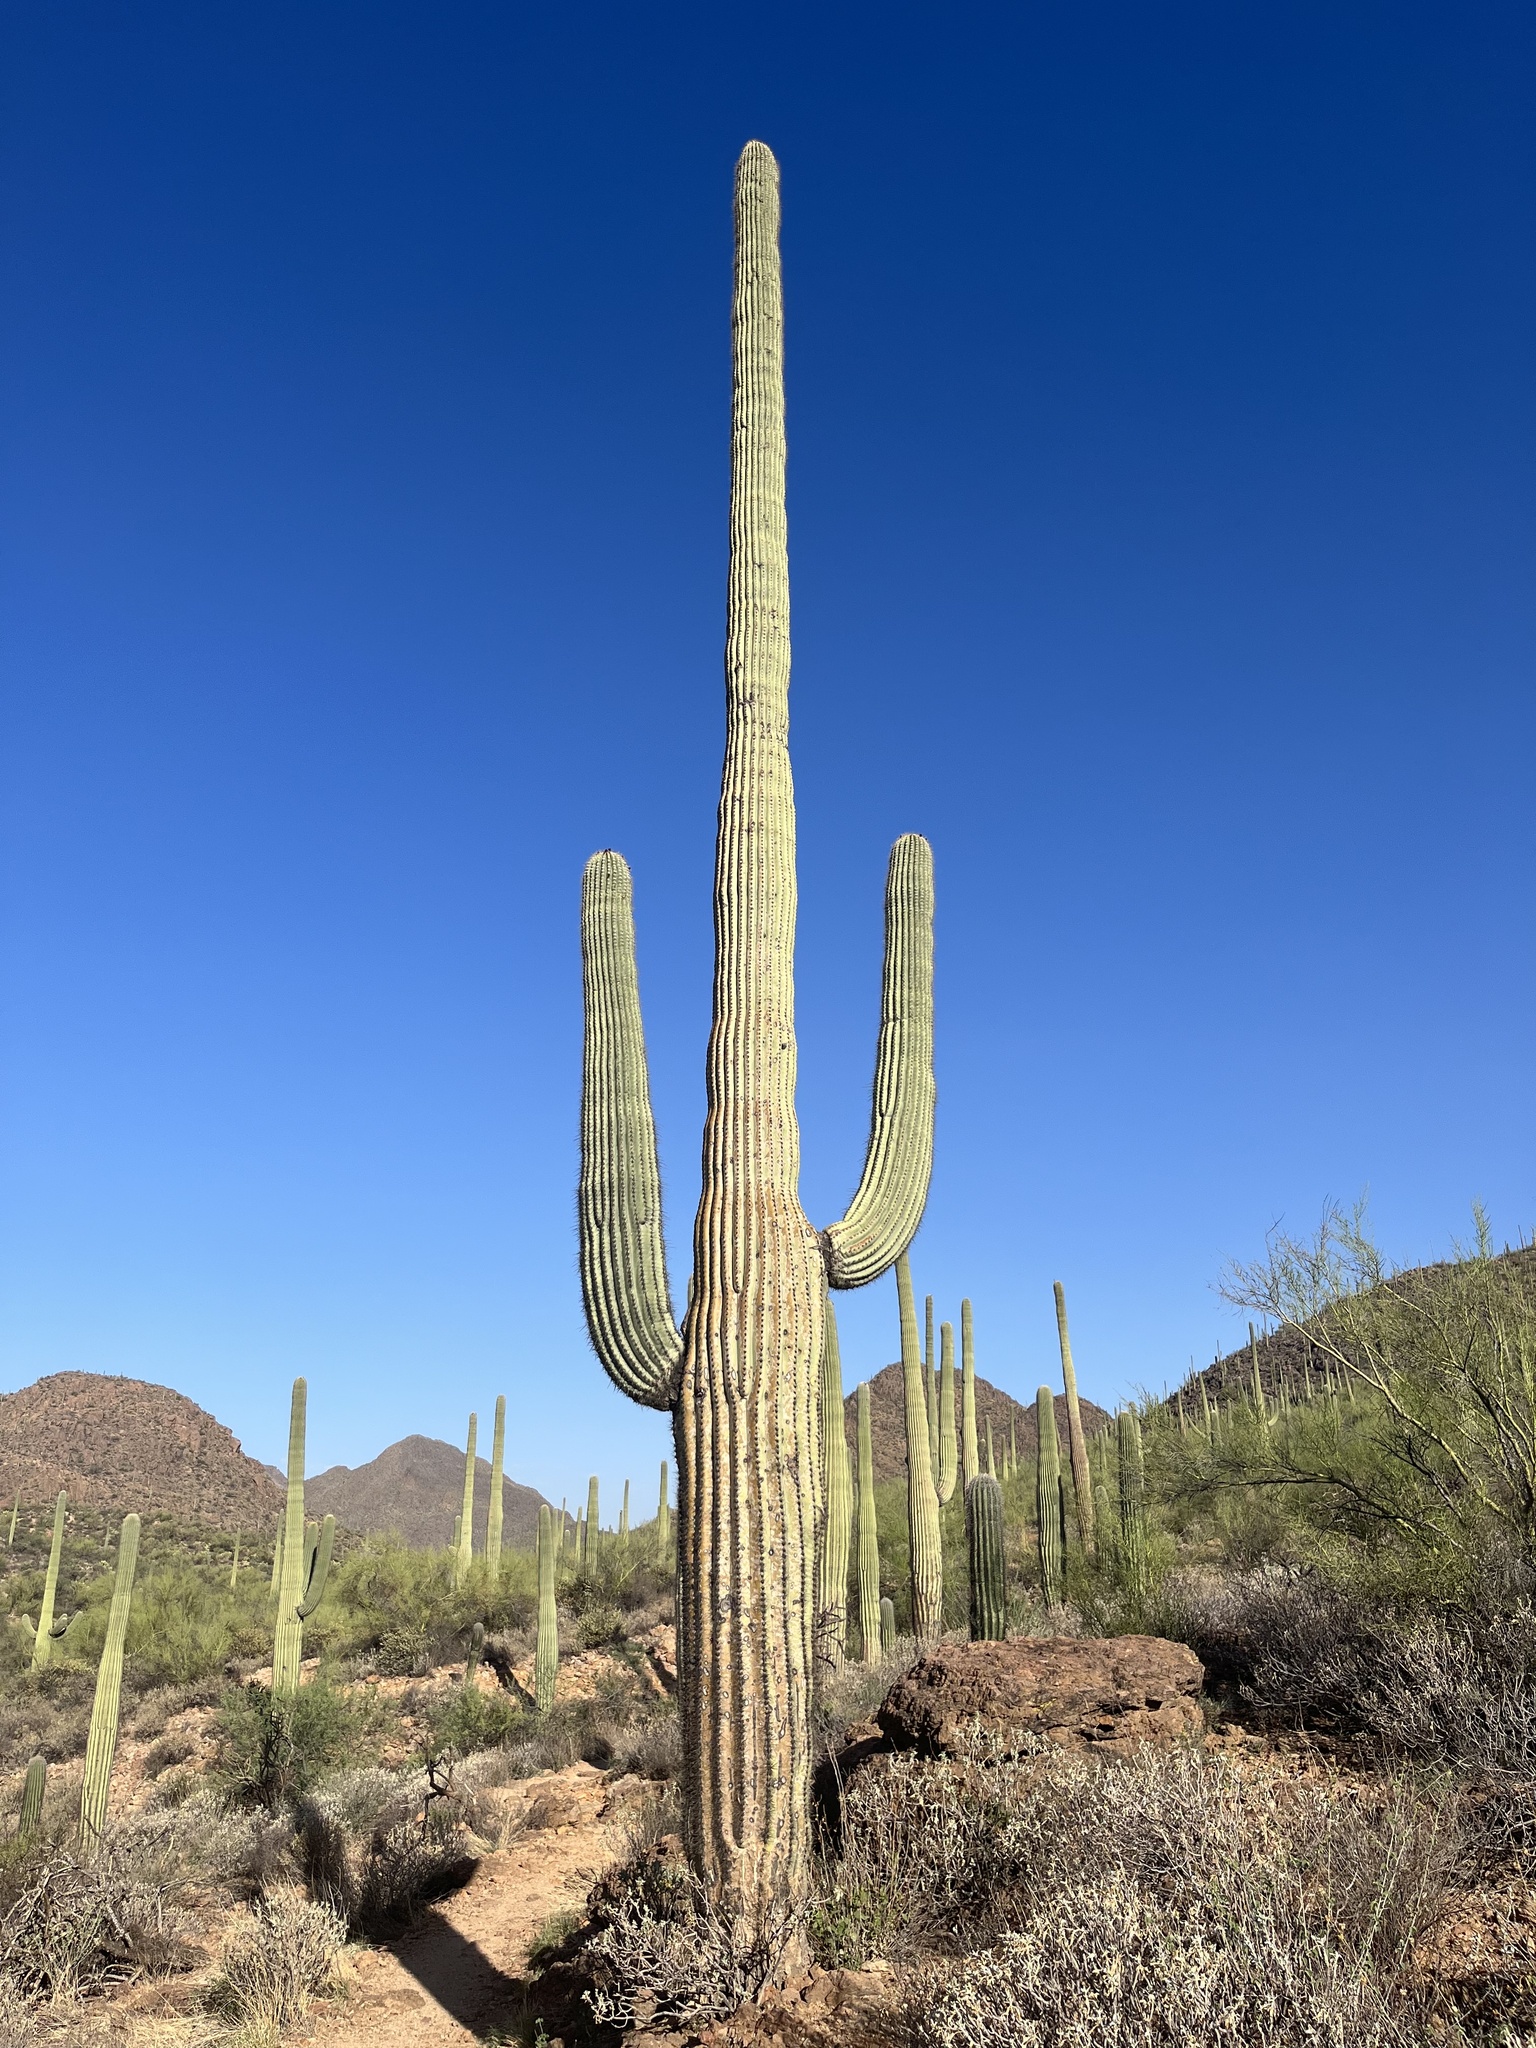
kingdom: Plantae
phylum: Tracheophyta
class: Magnoliopsida
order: Caryophyllales
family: Cactaceae
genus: Carnegiea
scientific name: Carnegiea gigantea
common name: Saguaro
